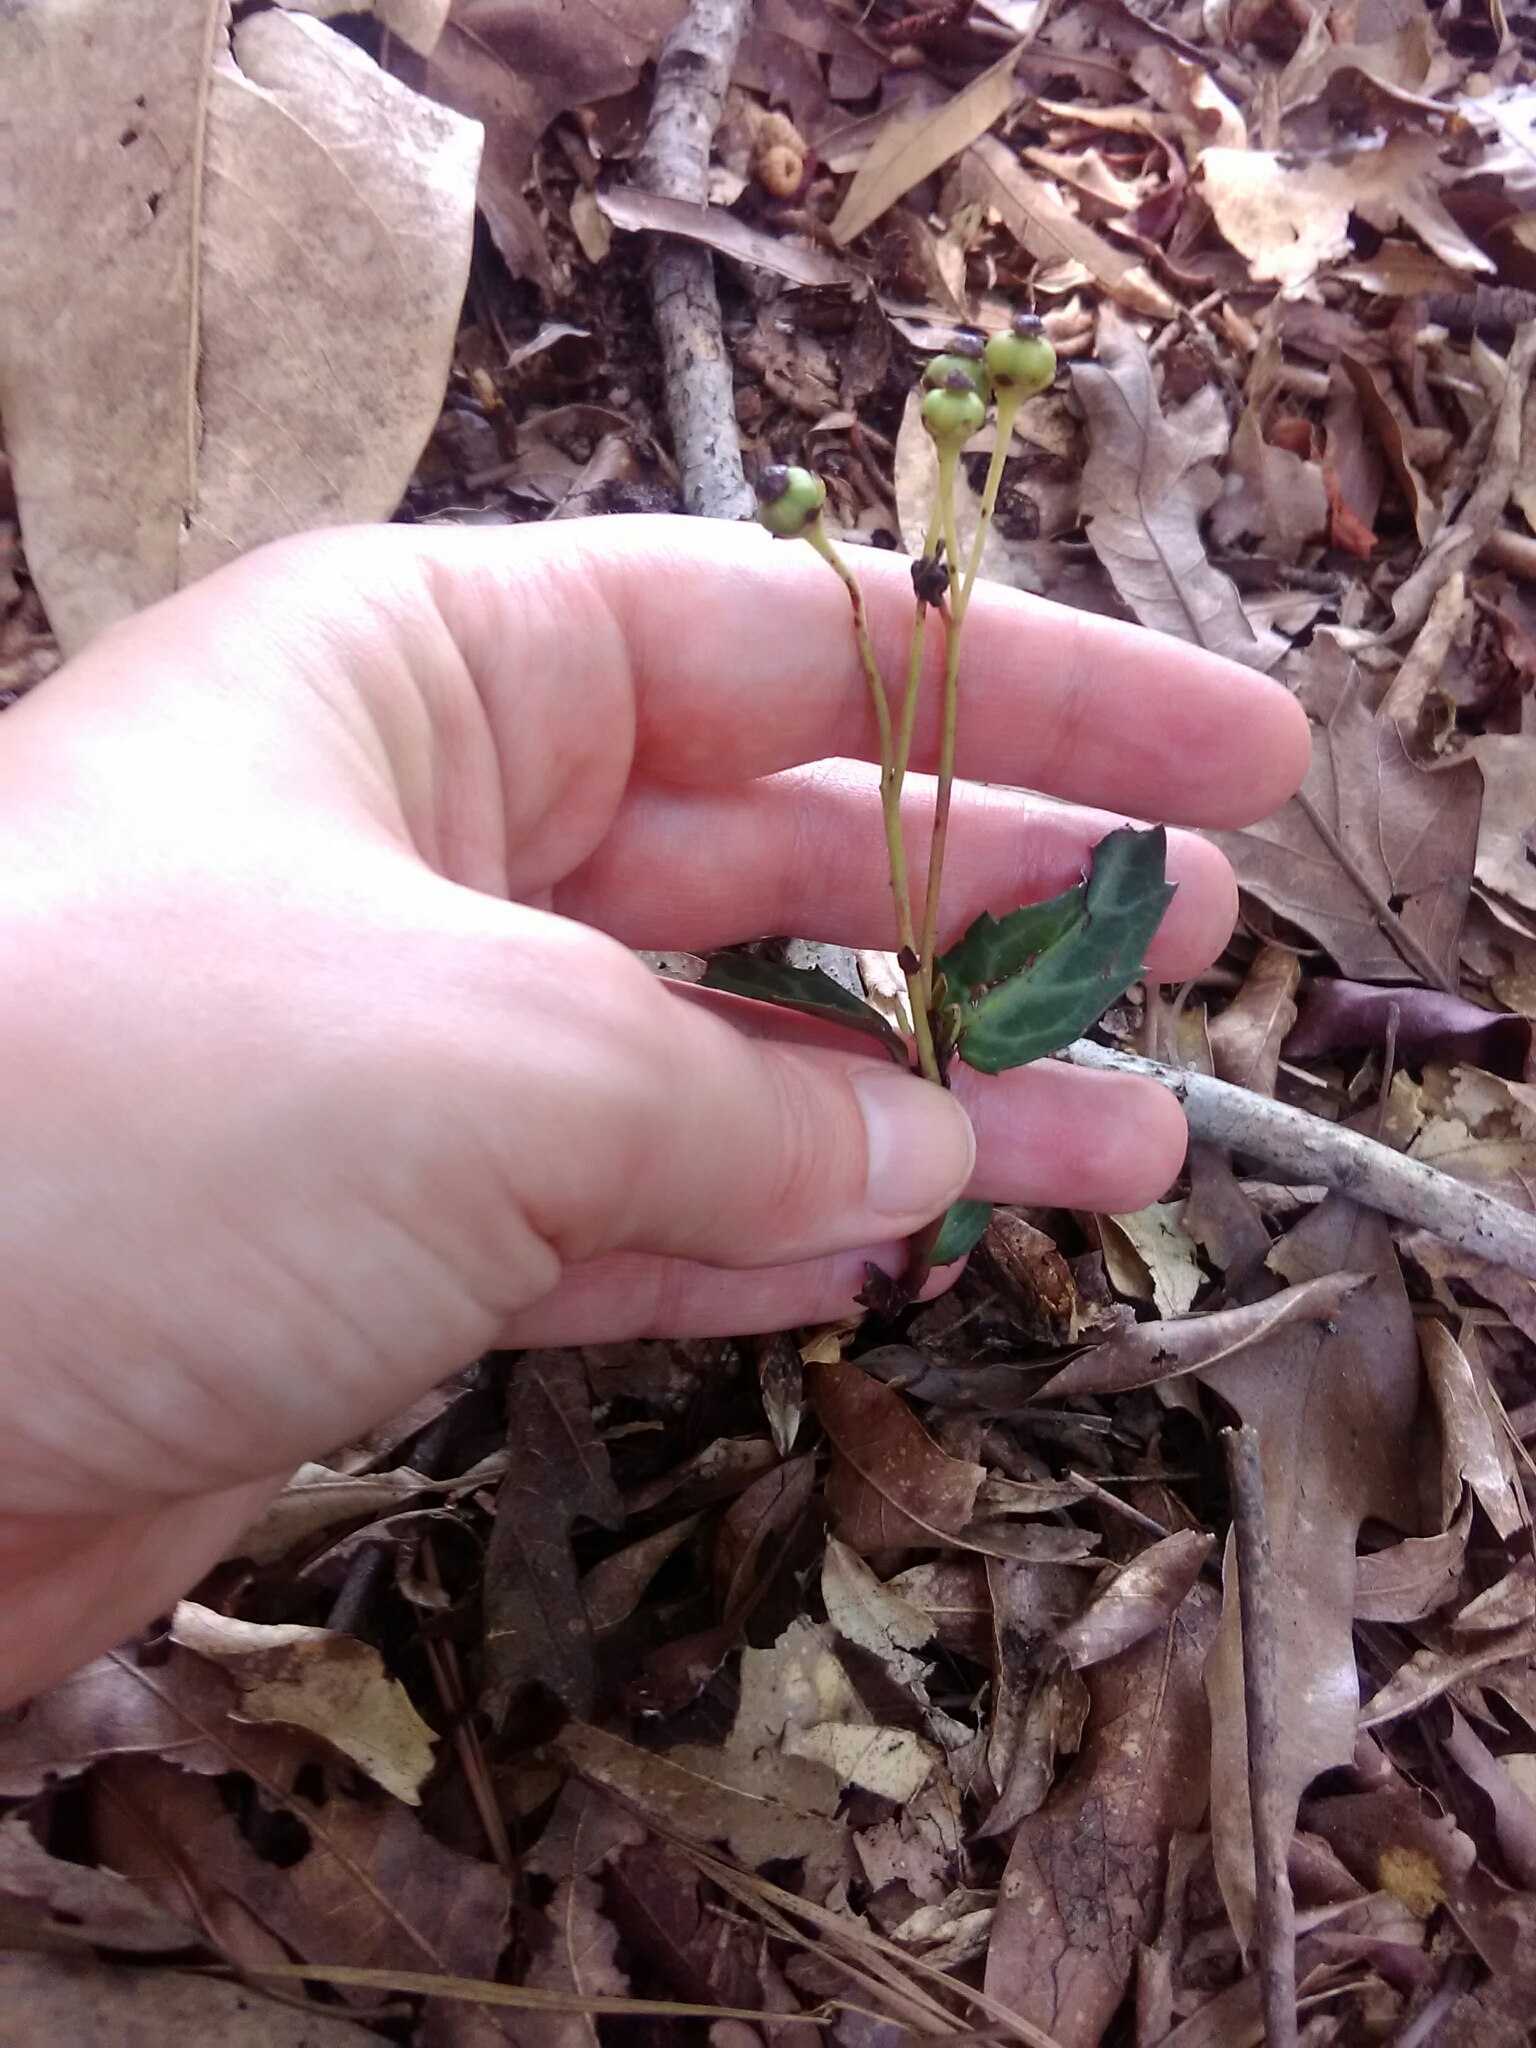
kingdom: Plantae
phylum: Tracheophyta
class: Magnoliopsida
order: Ericales
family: Ericaceae
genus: Chimaphila
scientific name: Chimaphila maculata
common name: Spotted pipsissewa
